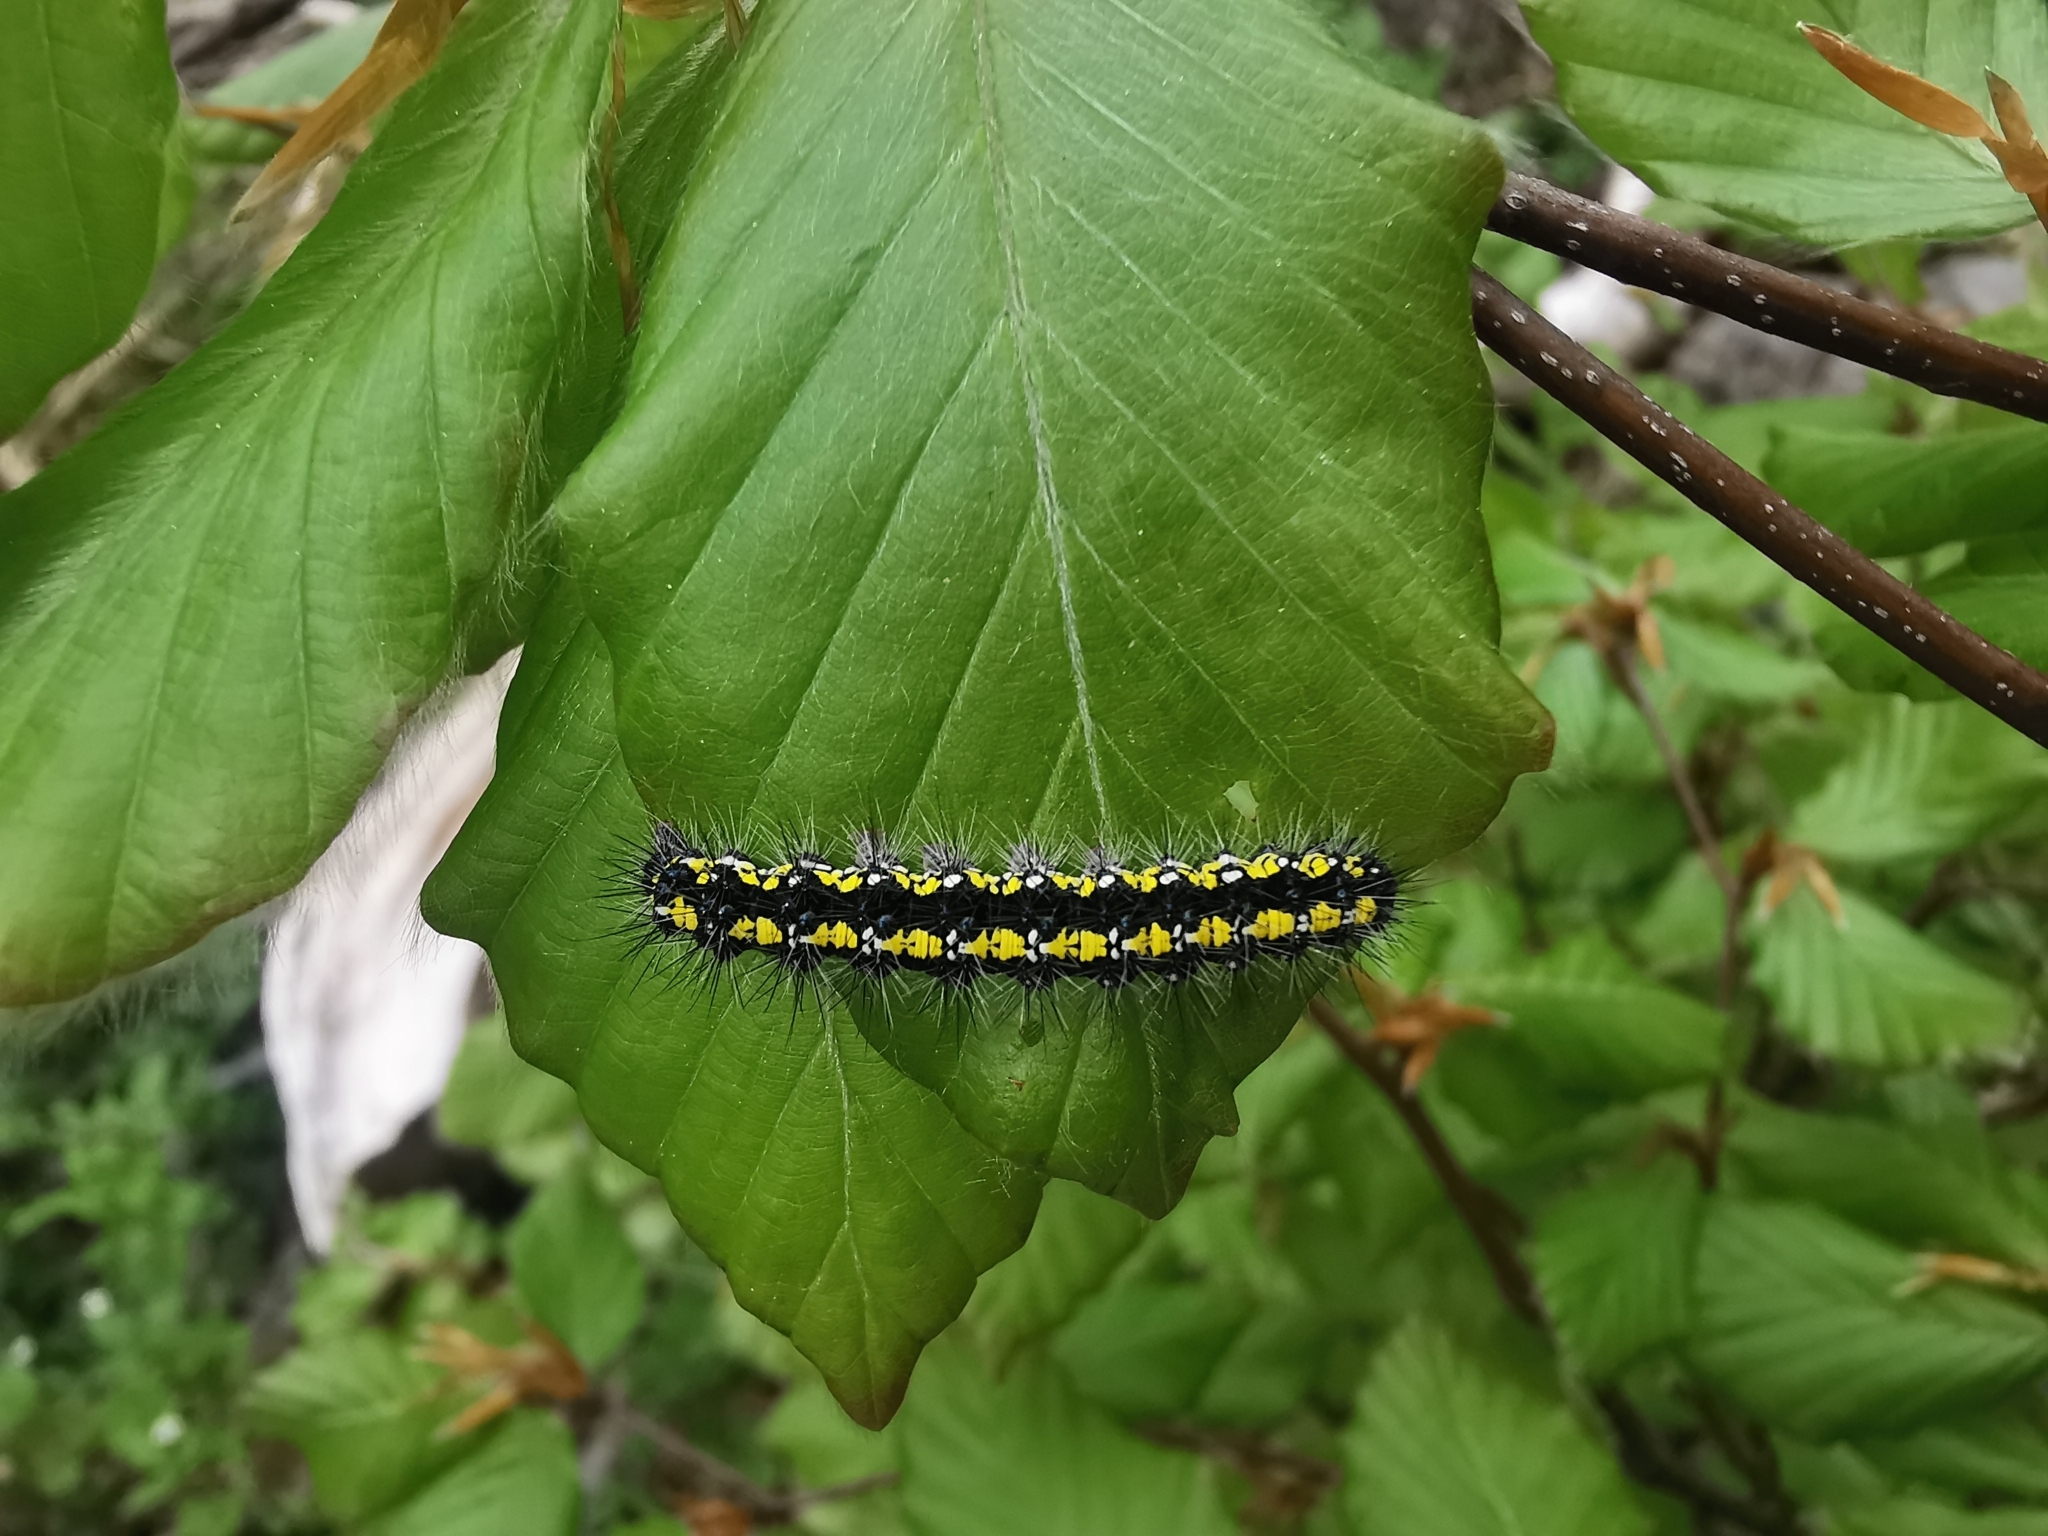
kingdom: Animalia
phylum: Arthropoda
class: Insecta
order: Lepidoptera
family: Erebidae
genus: Callimorpha
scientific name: Callimorpha dominula
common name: Scarlet tiger
